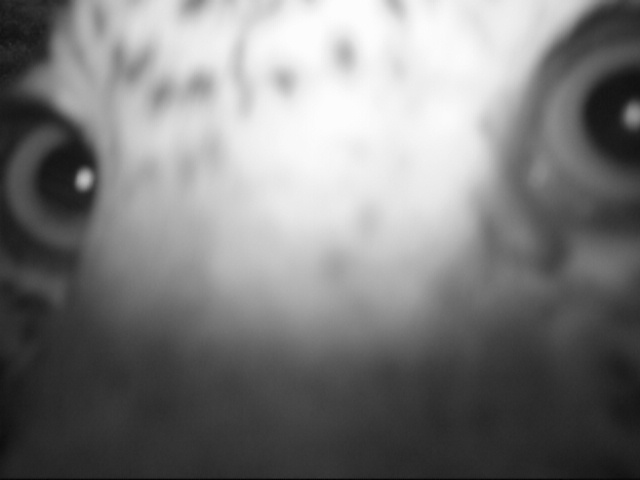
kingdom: Animalia
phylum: Chordata
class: Mammalia
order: Carnivora
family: Felidae
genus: Panthera
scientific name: Panthera pardus
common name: Leopard
